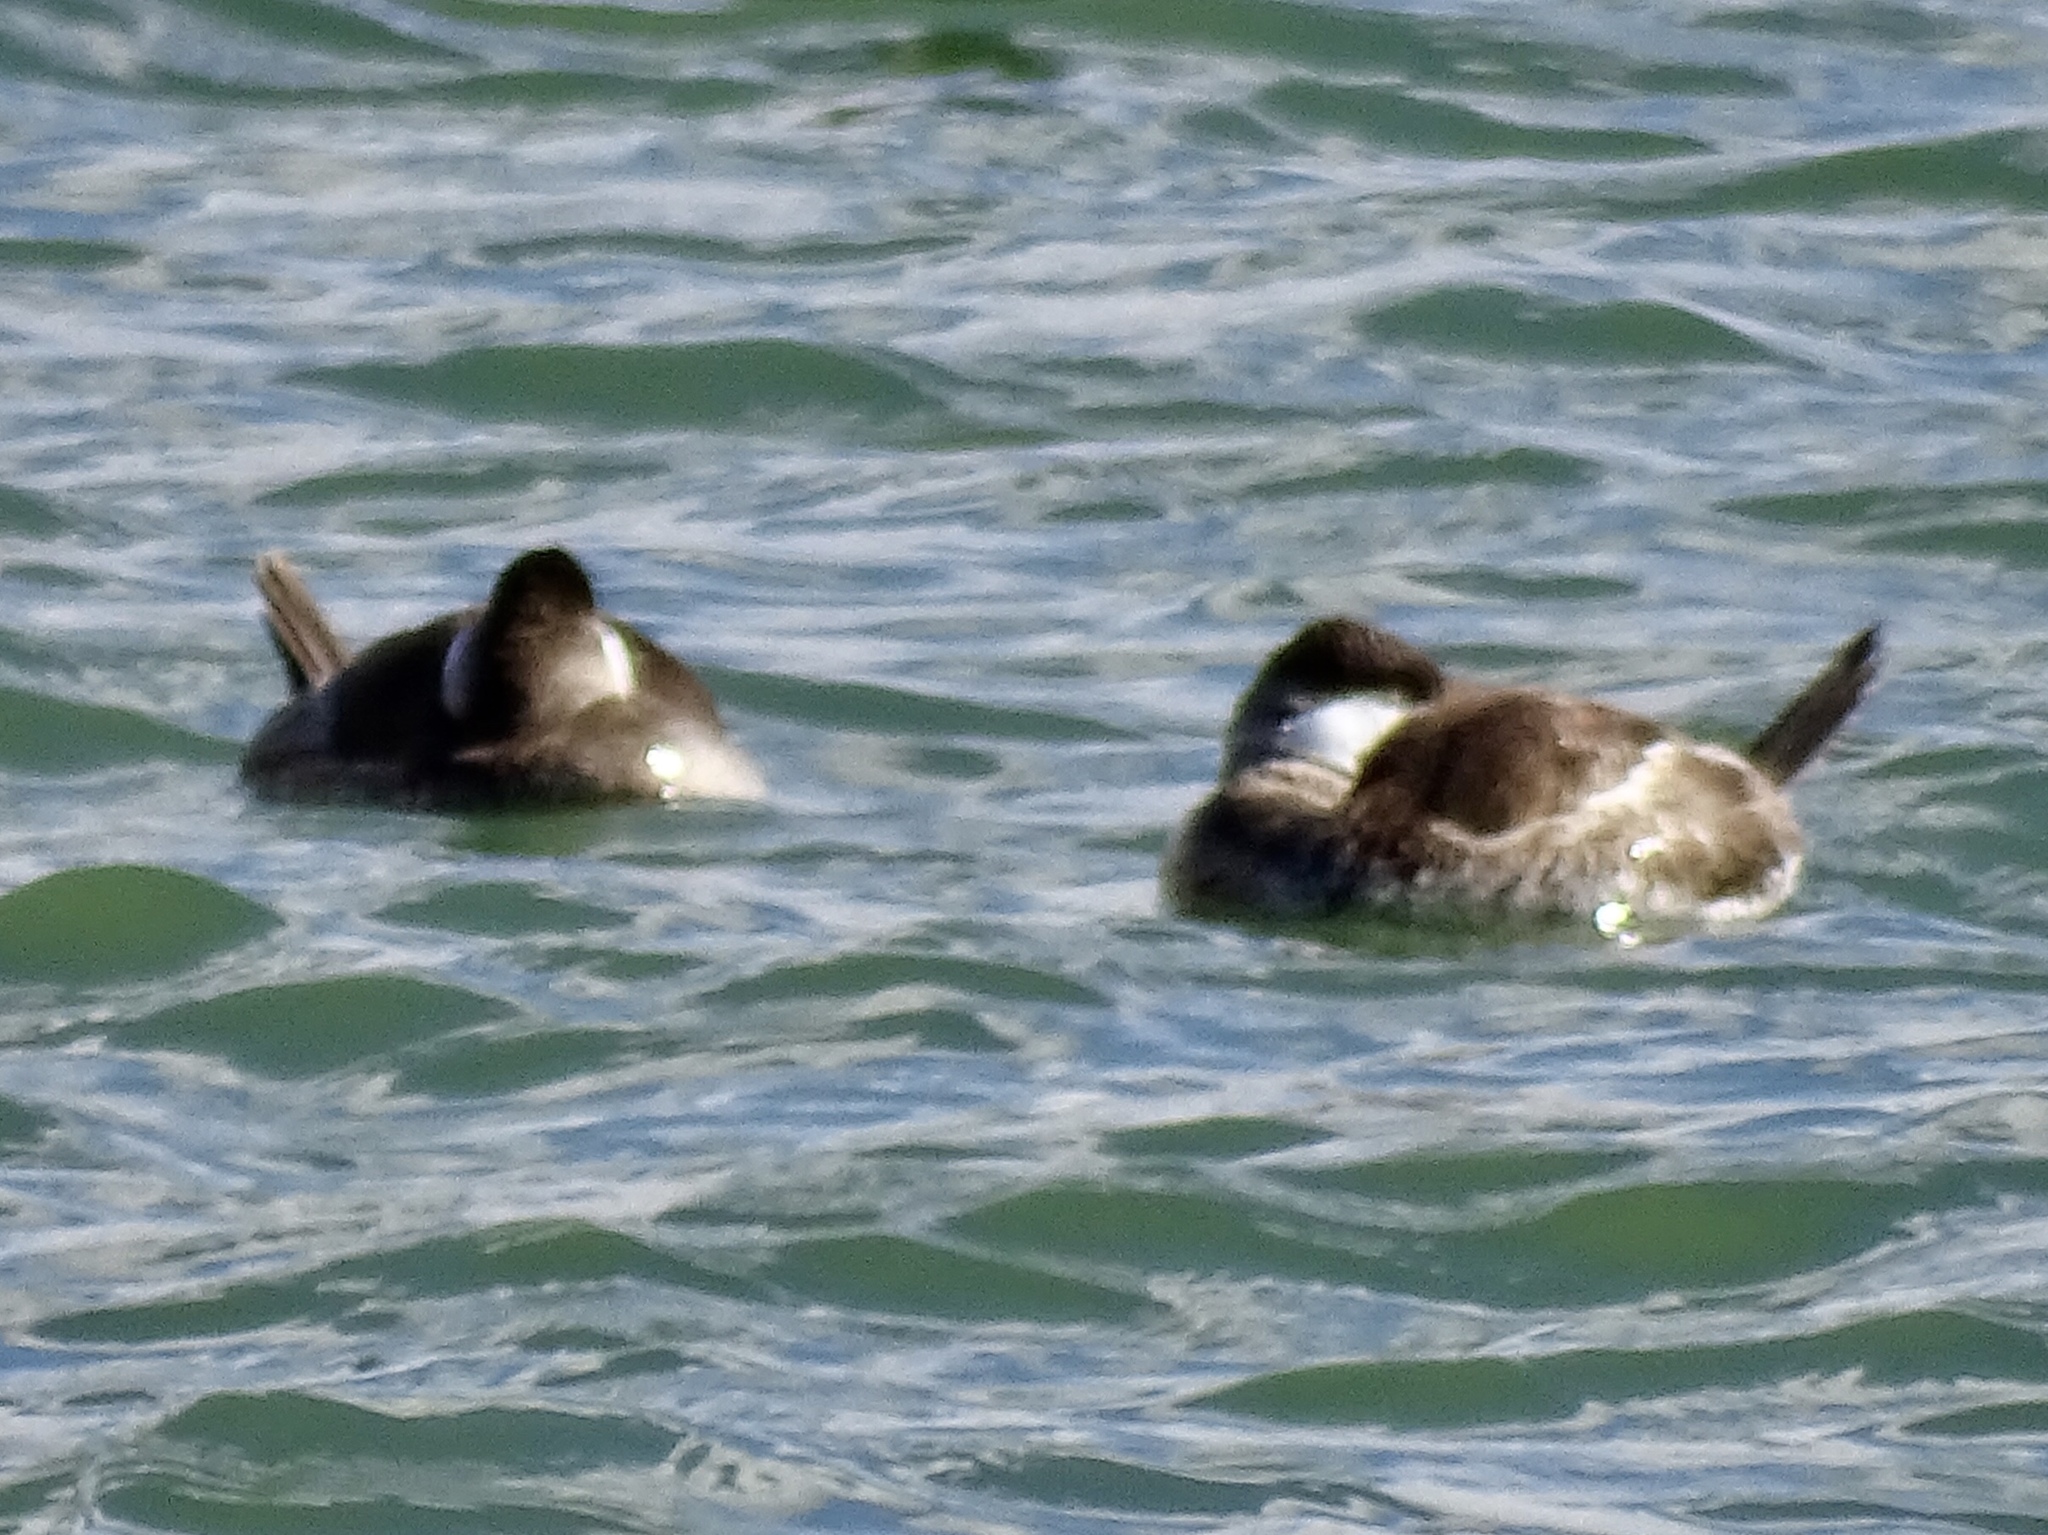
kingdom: Animalia
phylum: Chordata
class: Aves
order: Anseriformes
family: Anatidae
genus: Oxyura
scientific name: Oxyura jamaicensis
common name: Ruddy duck
